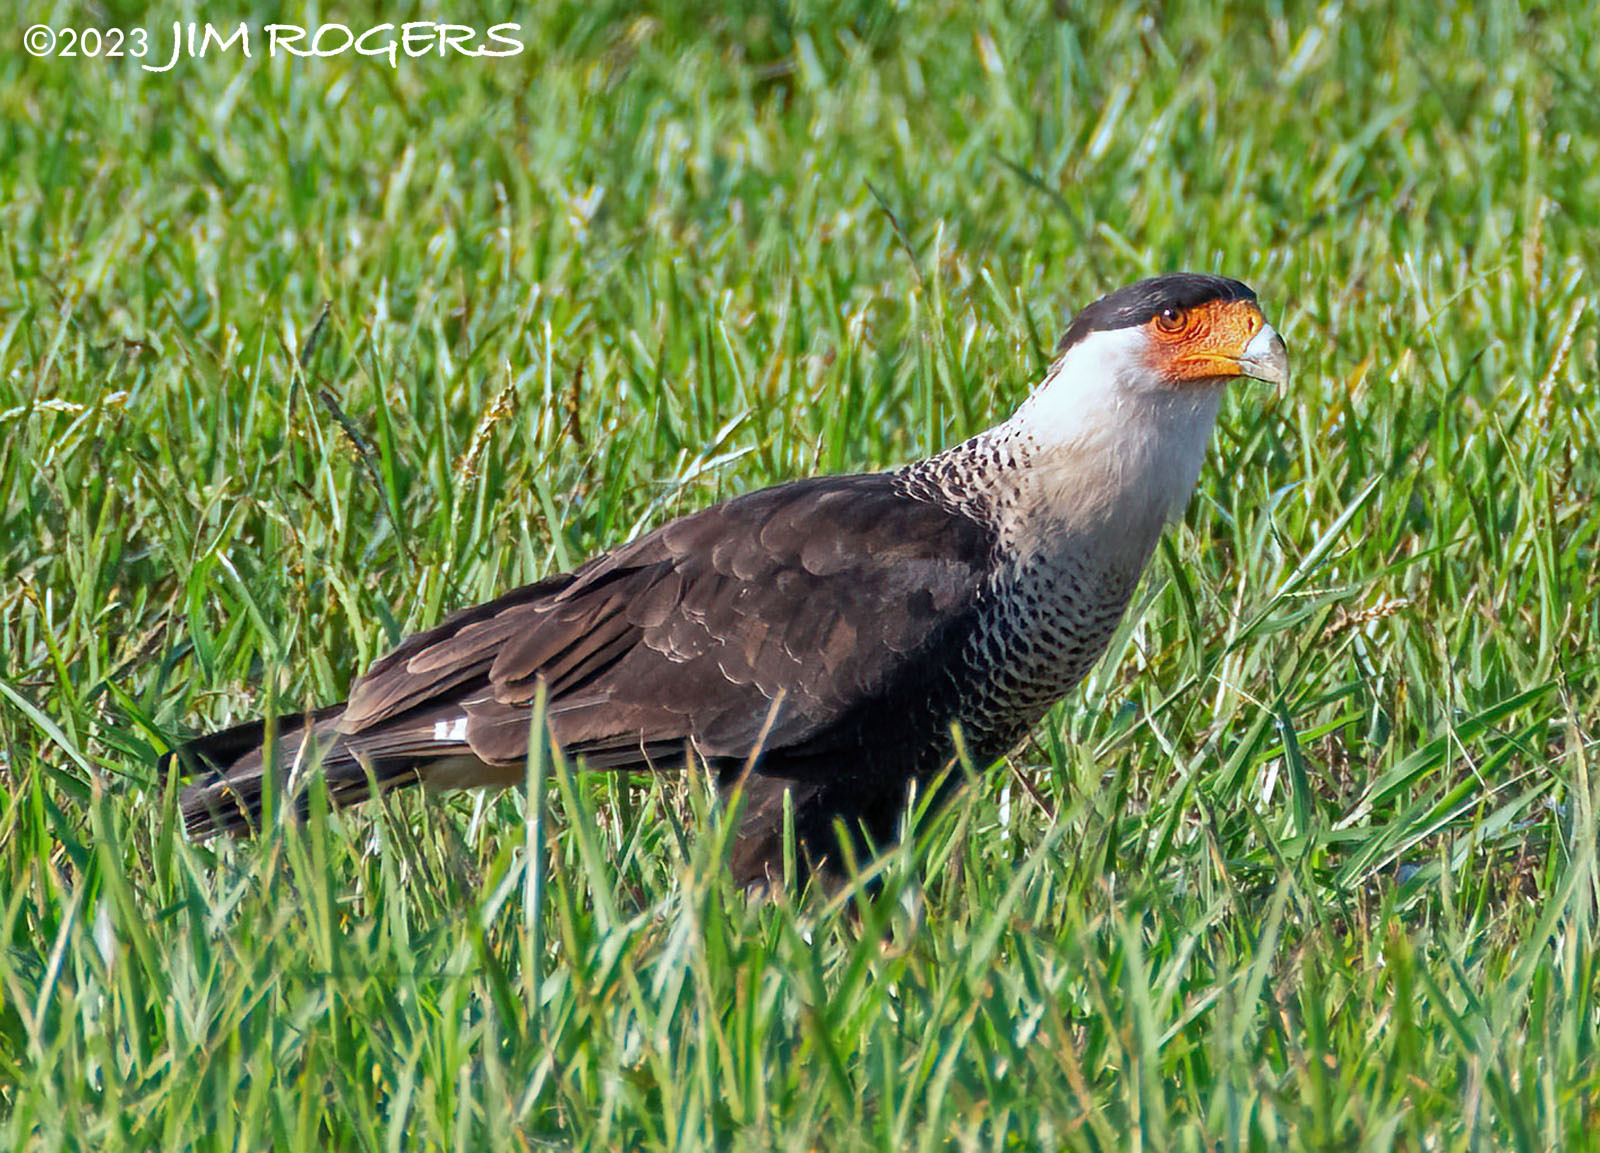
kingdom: Animalia
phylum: Chordata
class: Aves
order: Falconiformes
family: Falconidae
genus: Caracara
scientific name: Caracara plancus
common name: Southern caracara
